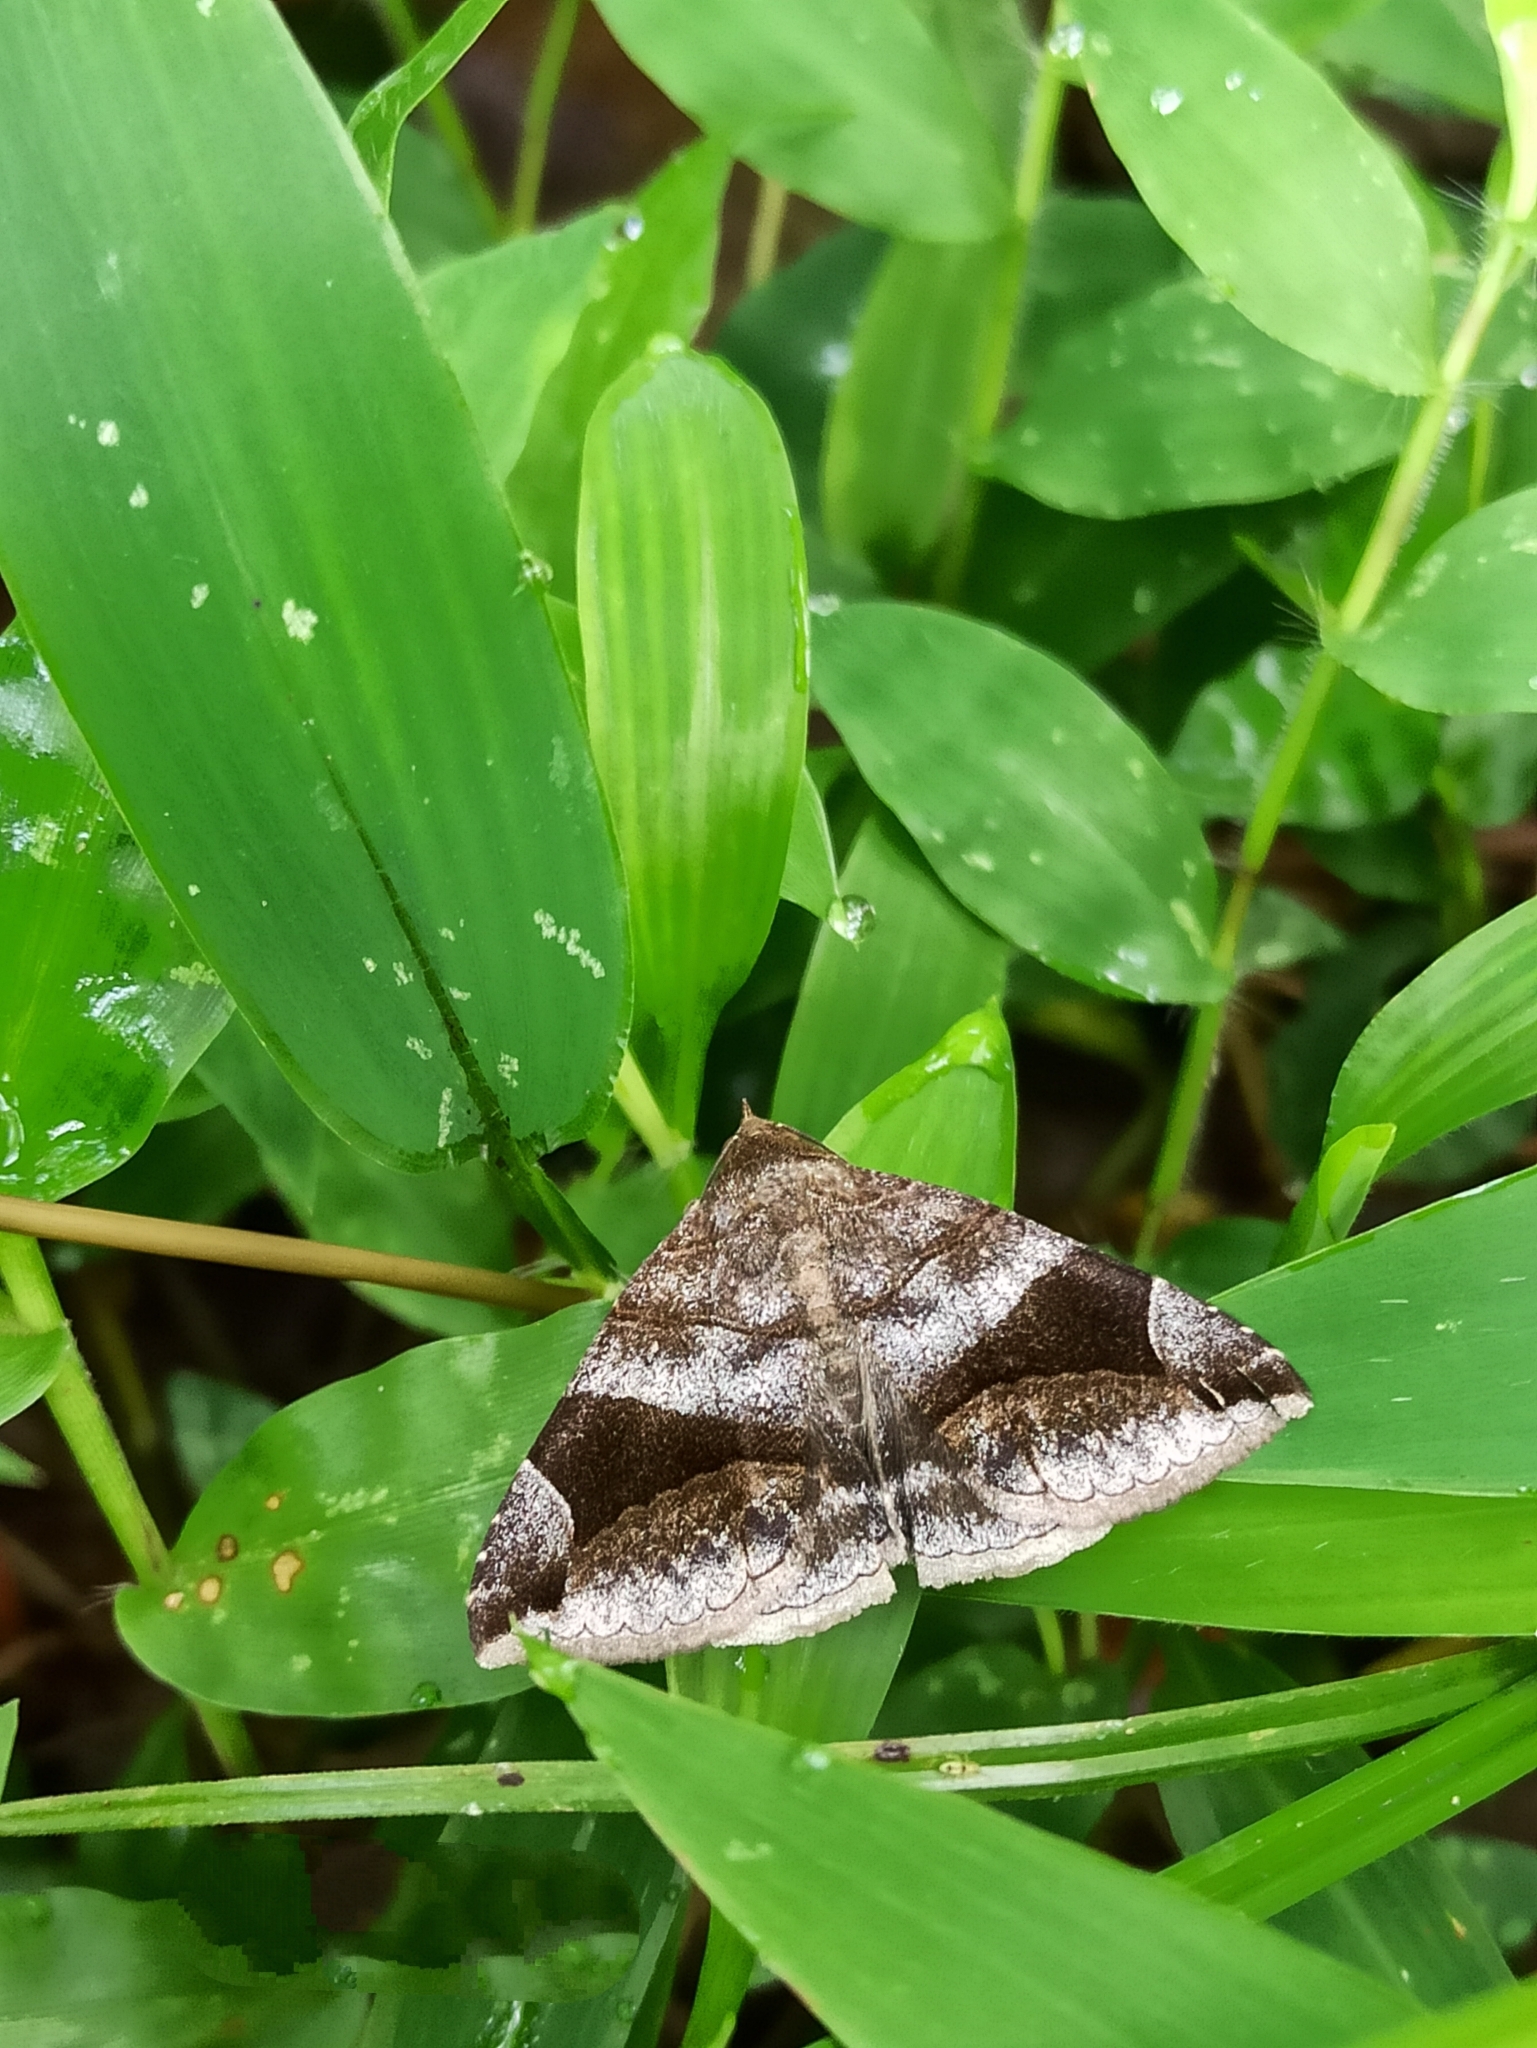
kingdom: Animalia
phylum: Arthropoda
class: Insecta
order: Lepidoptera
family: Erebidae
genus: Bastilla
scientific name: Bastilla amygdalis
